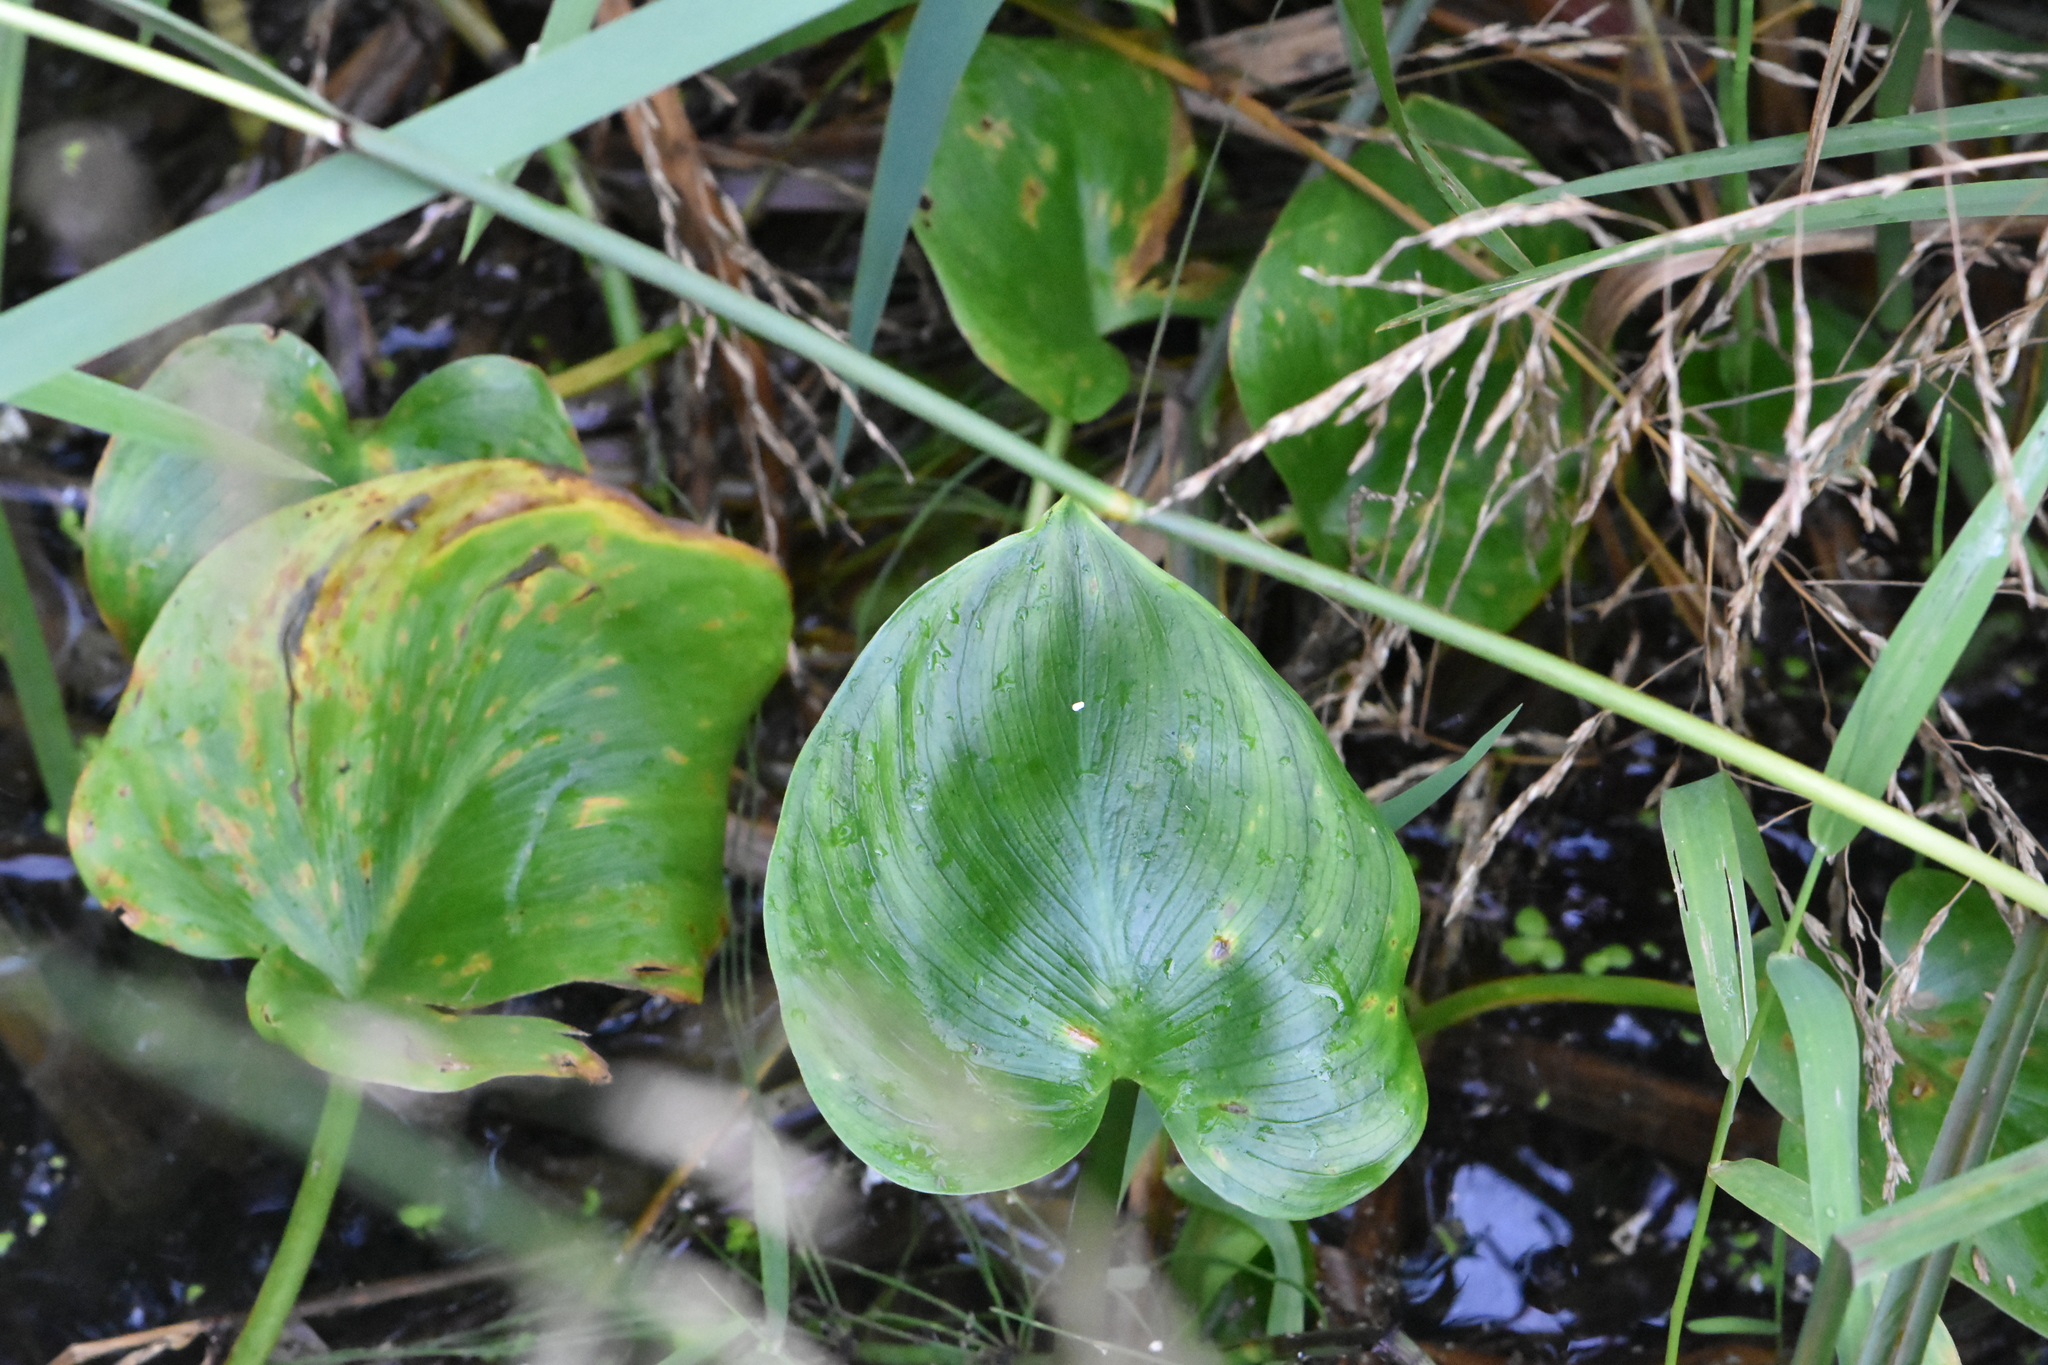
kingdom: Plantae
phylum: Tracheophyta
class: Liliopsida
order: Alismatales
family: Araceae
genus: Calla
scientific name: Calla palustris
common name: Bog arum
